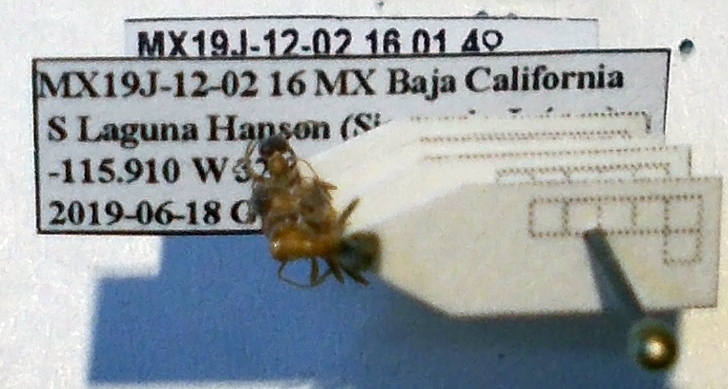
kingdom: Animalia
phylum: Arthropoda
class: Insecta
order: Hymenoptera
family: Formicidae
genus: Liometopum
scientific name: Liometopum occidentale
